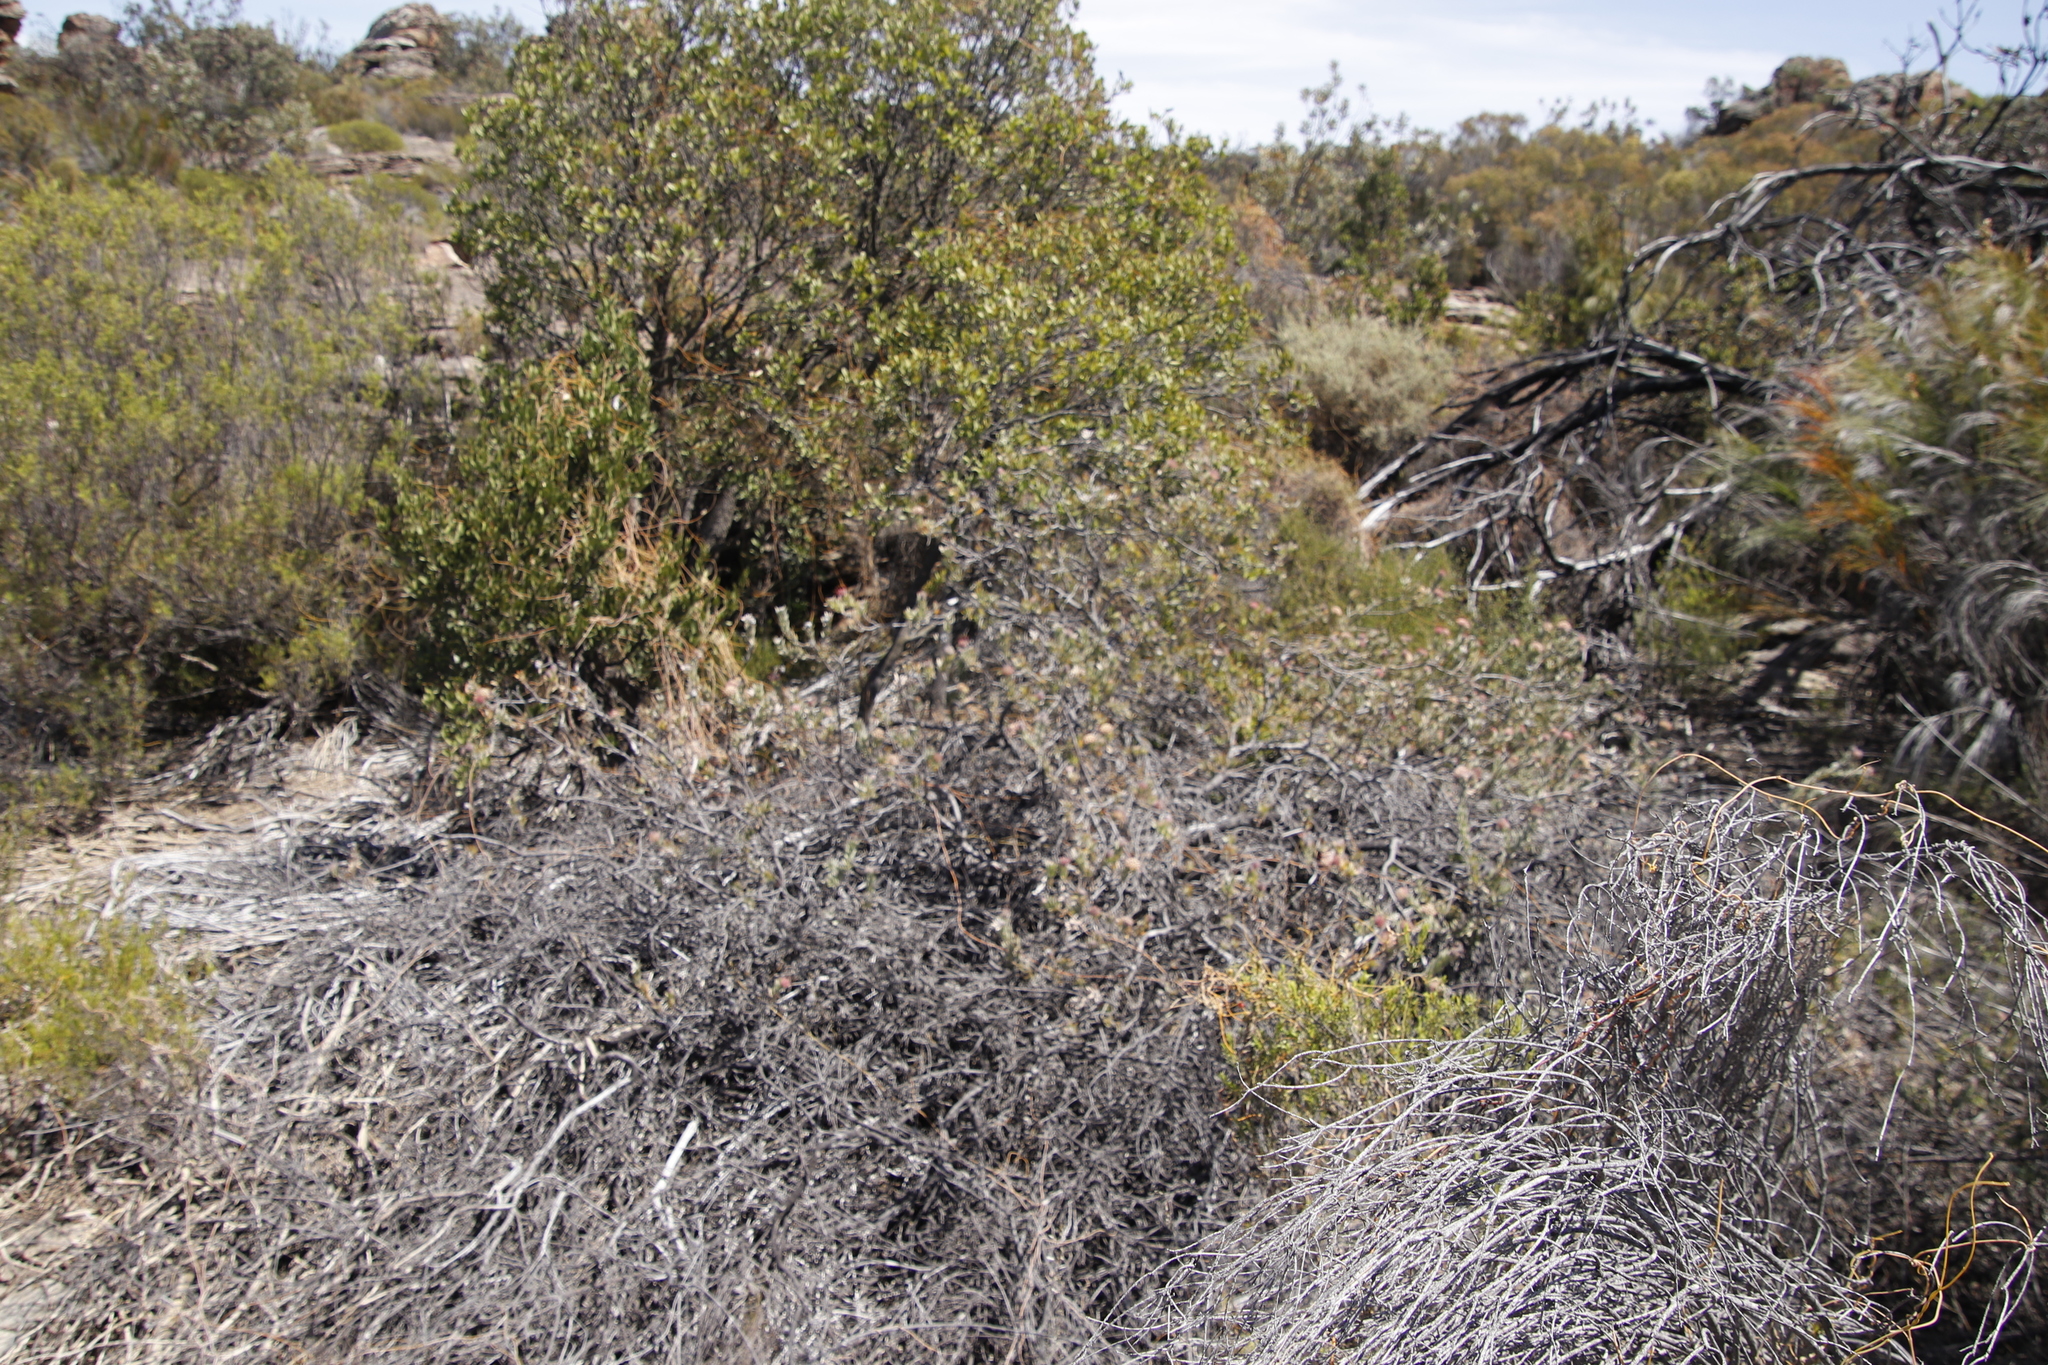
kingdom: Plantae
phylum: Tracheophyta
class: Magnoliopsida
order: Proteales
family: Proteaceae
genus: Leucospermum
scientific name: Leucospermum calligerum
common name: Arid pincushion
